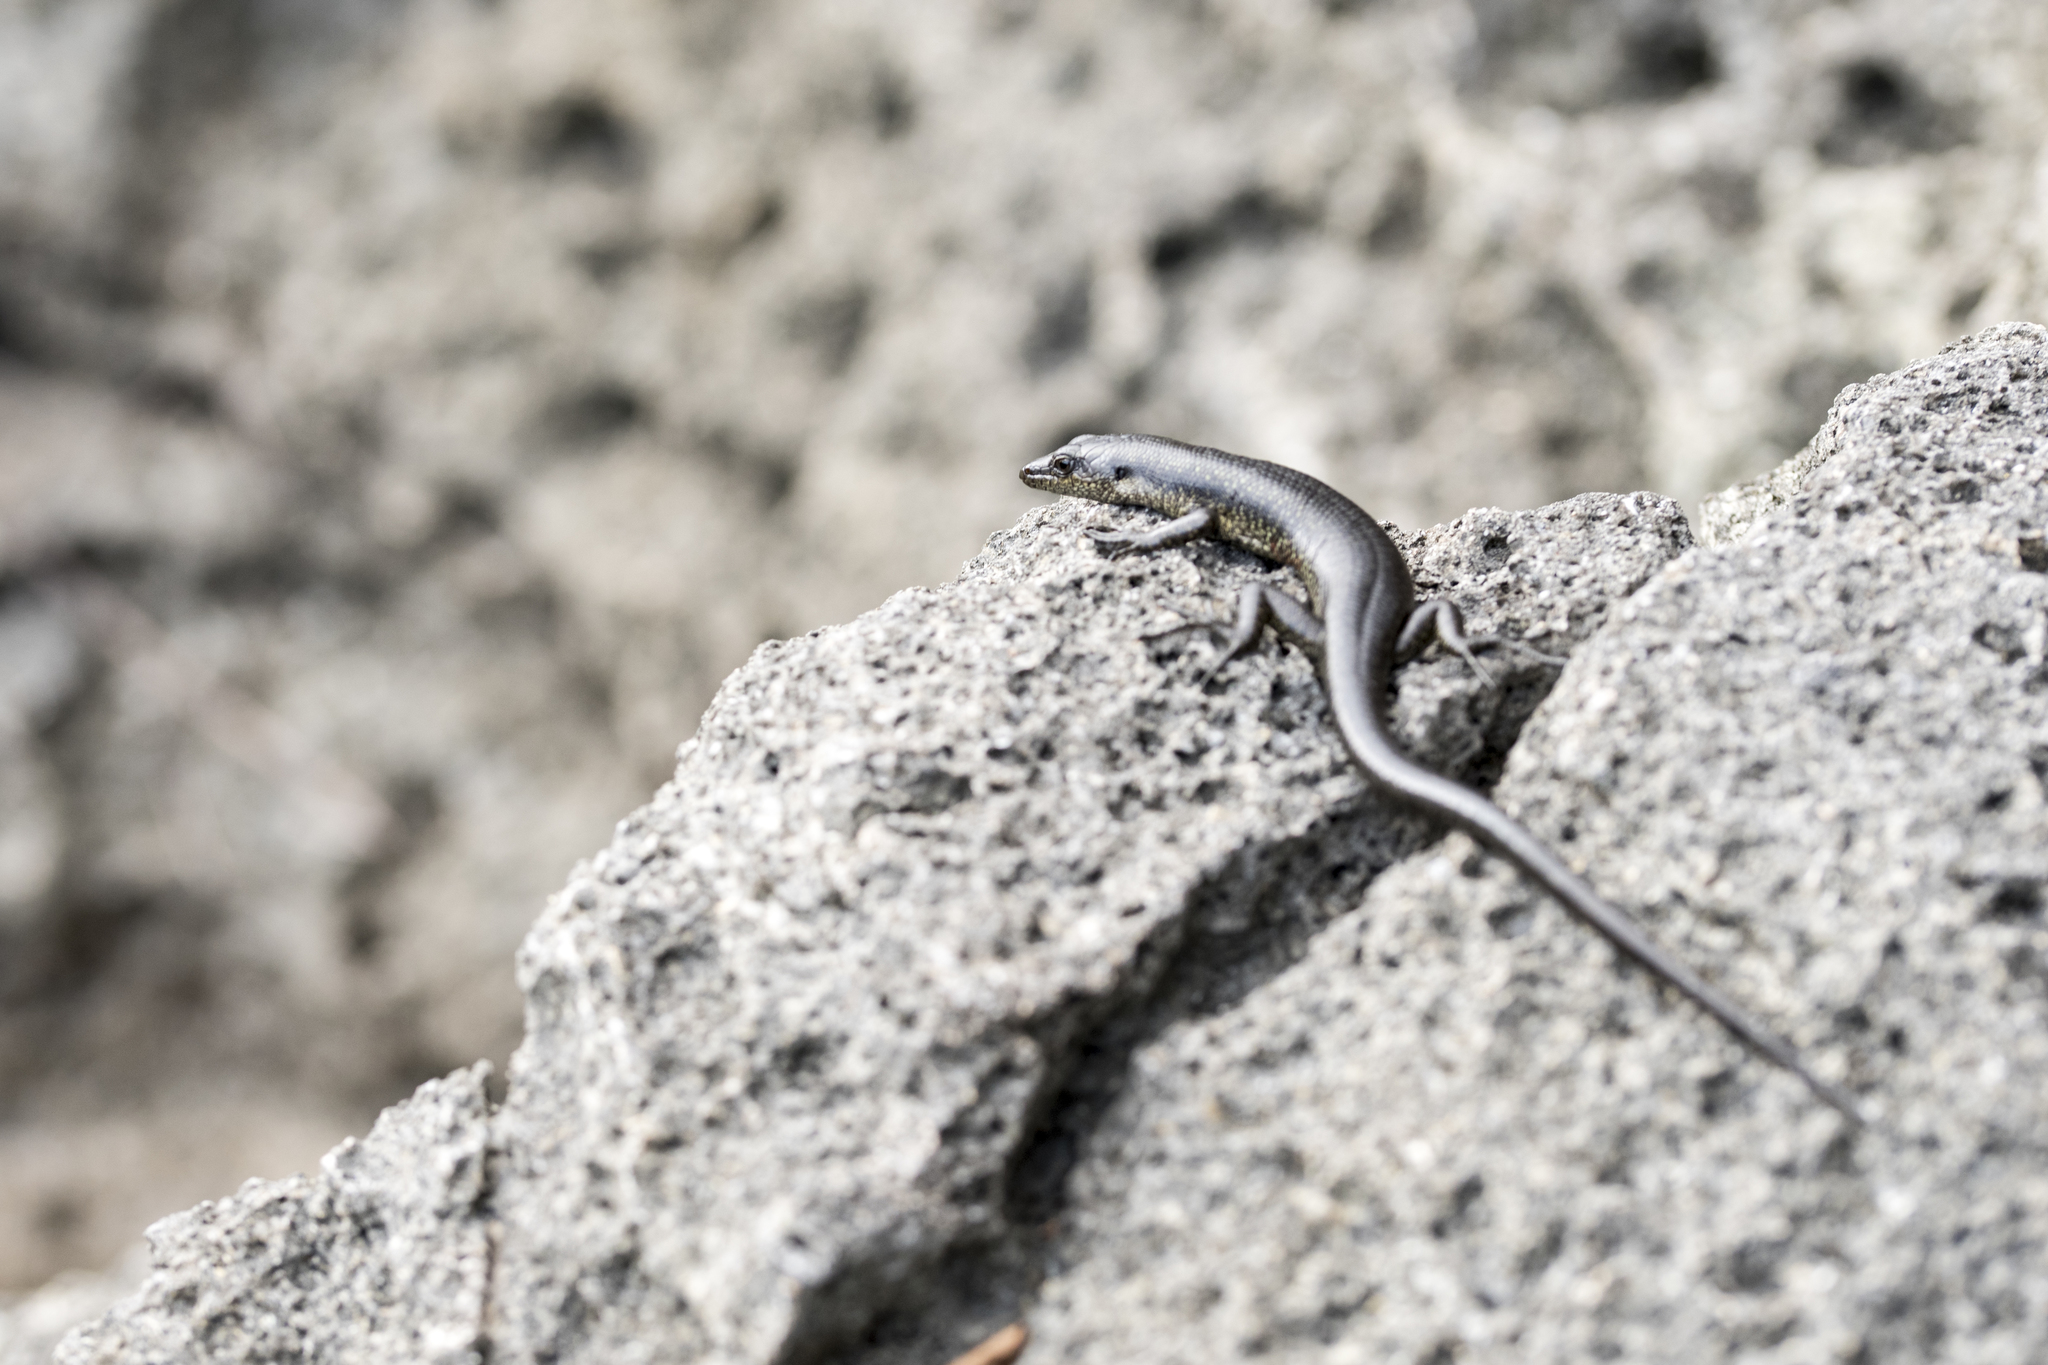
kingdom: Animalia
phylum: Chordata
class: Squamata
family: Scincidae
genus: Emoia
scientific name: Emoia atrocostata
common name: Littoral skink
